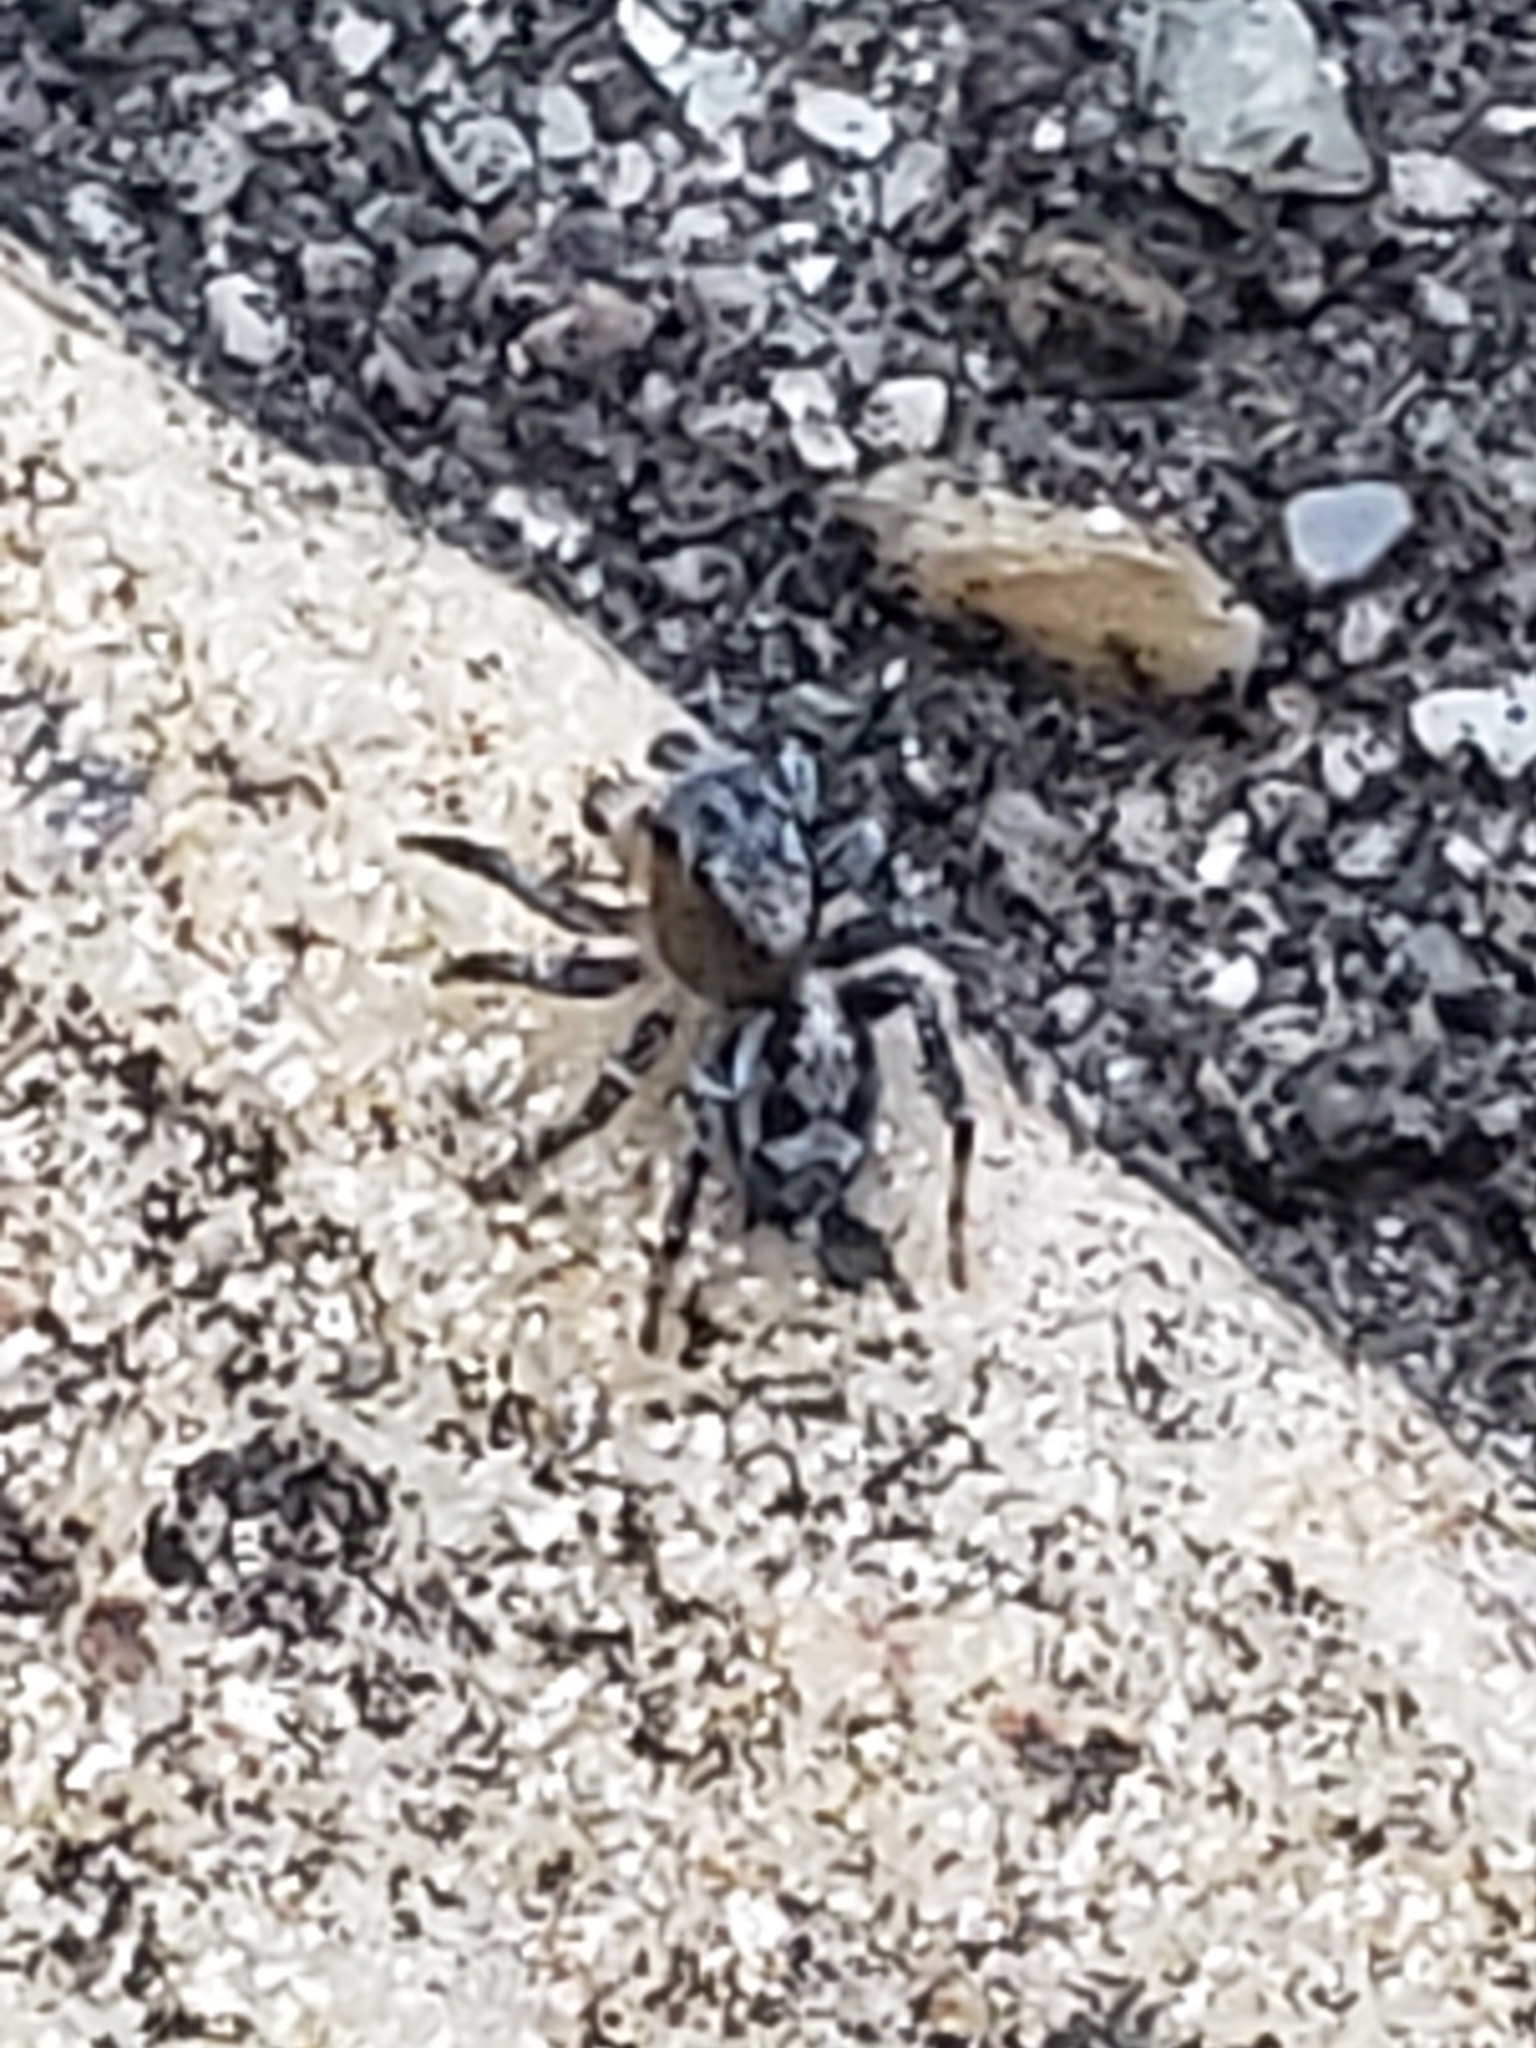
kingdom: Animalia
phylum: Arthropoda
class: Arachnida
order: Araneae
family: Salticidae
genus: Naphrys
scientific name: Naphrys pulex
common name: Flea jumping spider
